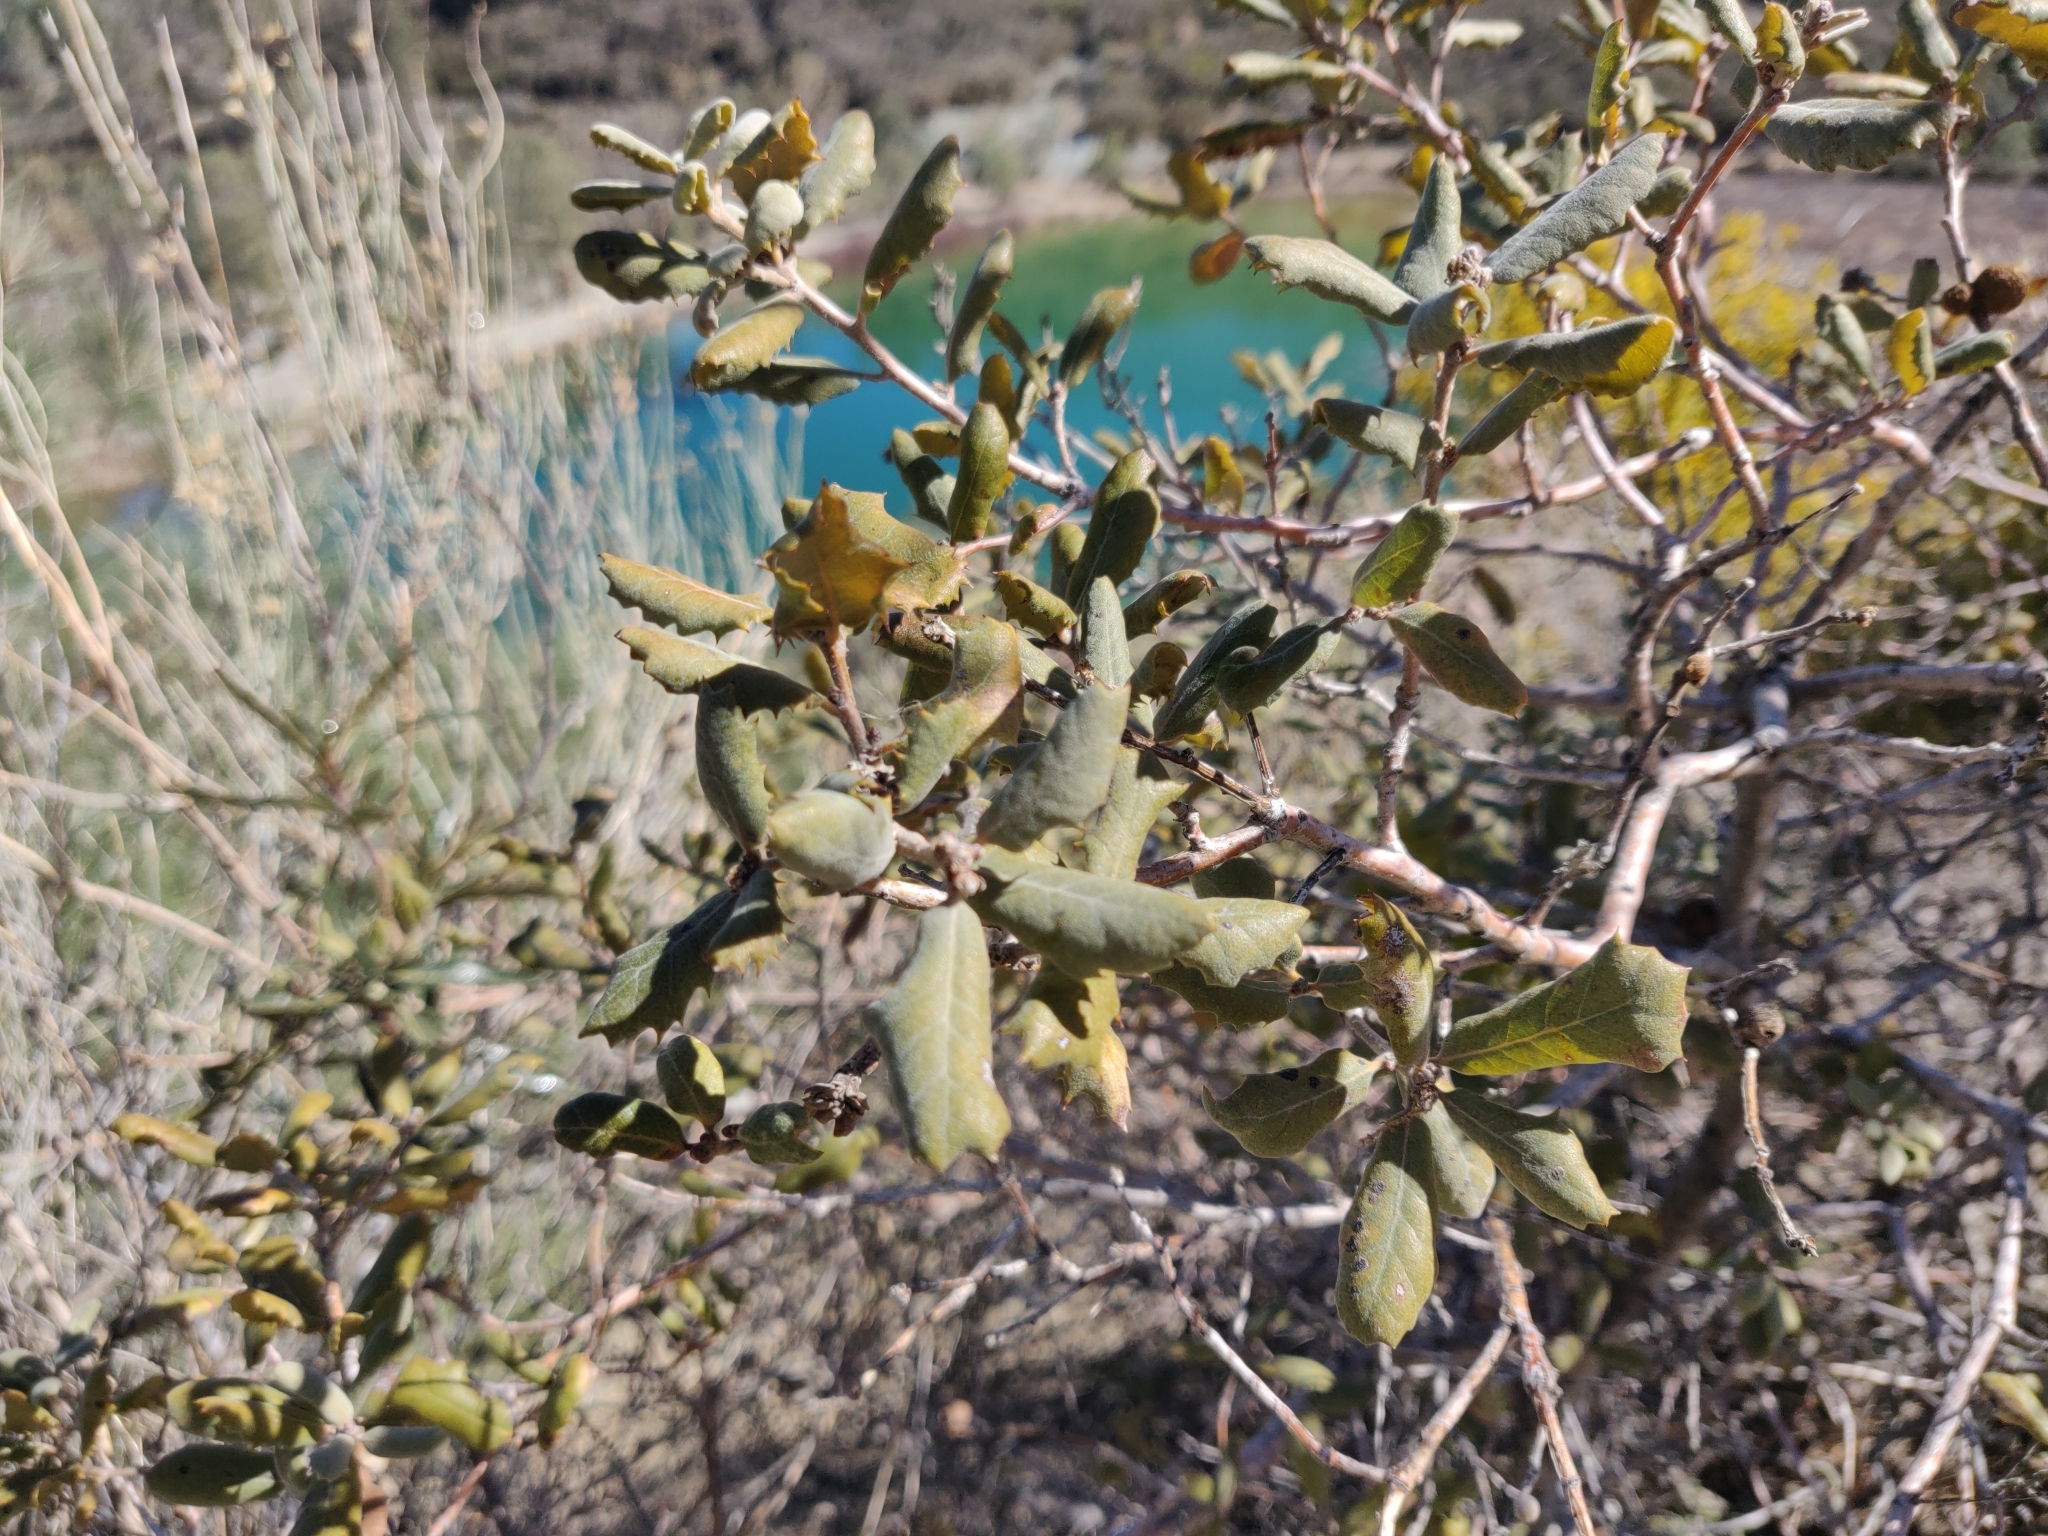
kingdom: Plantae
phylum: Tracheophyta
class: Magnoliopsida
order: Fagales
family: Fagaceae
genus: Quercus
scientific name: Quercus durata
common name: Leather oak
